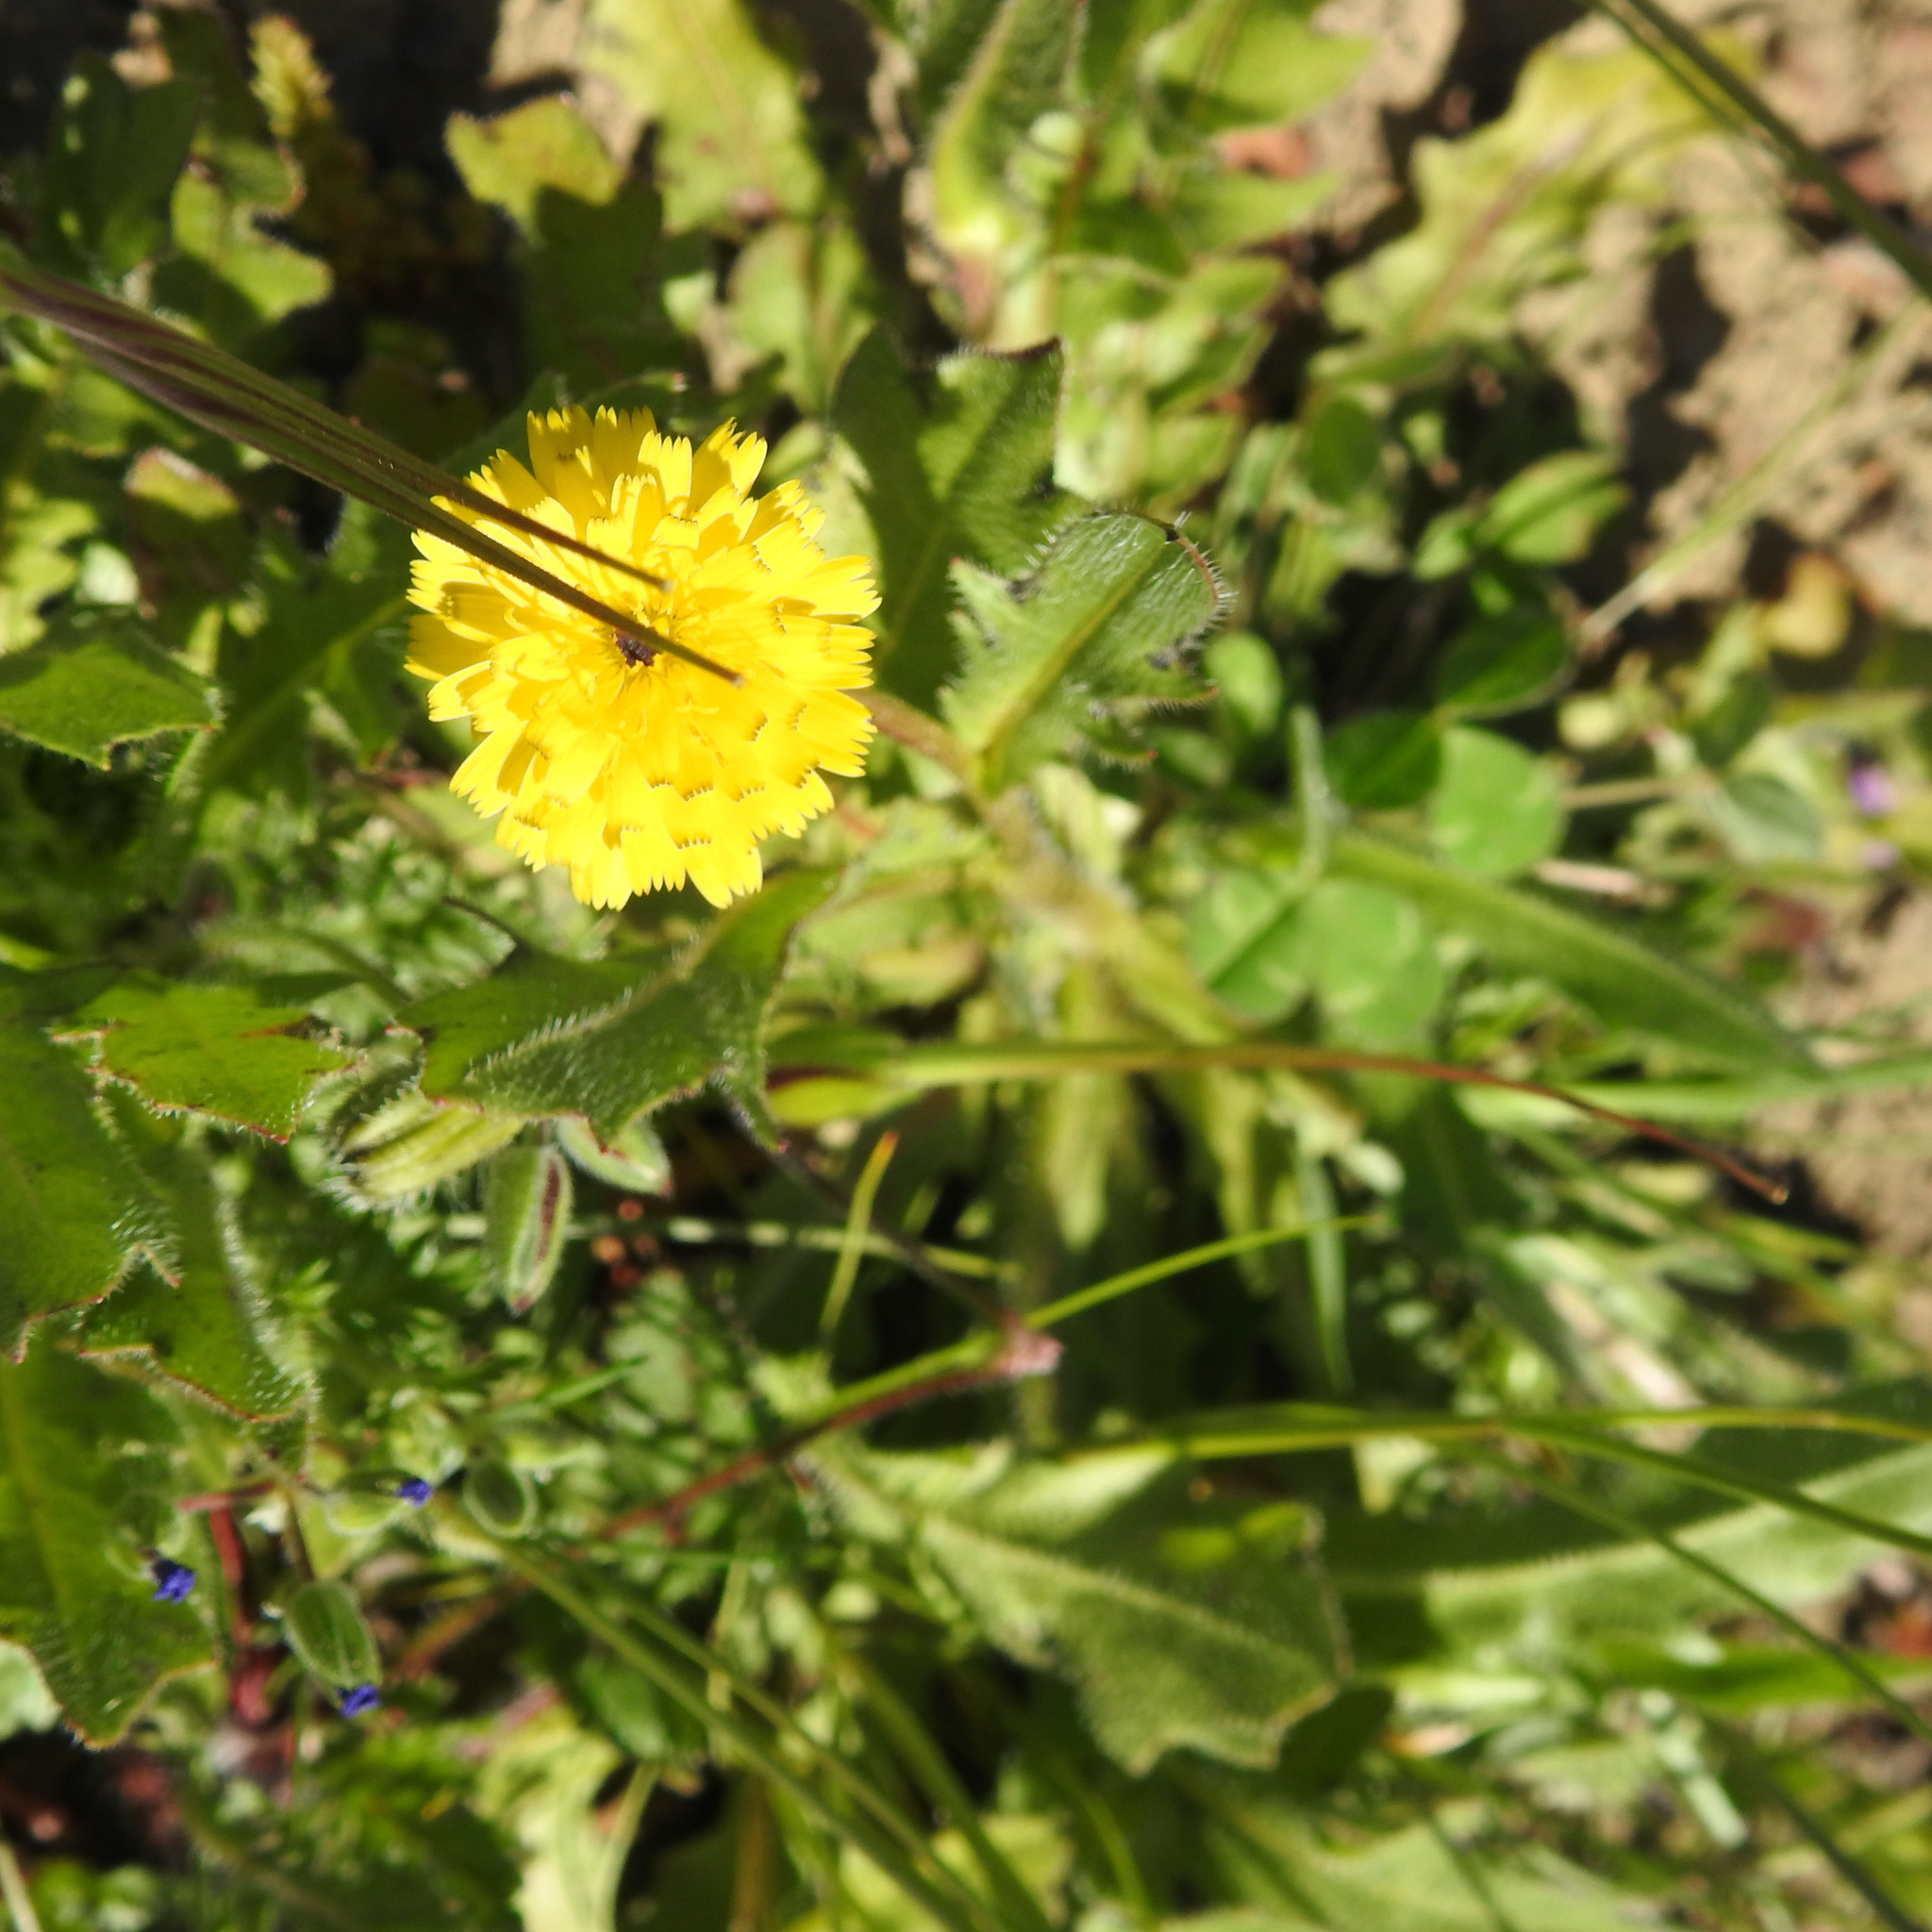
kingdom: Plantae
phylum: Tracheophyta
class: Magnoliopsida
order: Asterales
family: Asteraceae
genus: Hedypnois
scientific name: Hedypnois rhagadioloides
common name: Cretan weed
